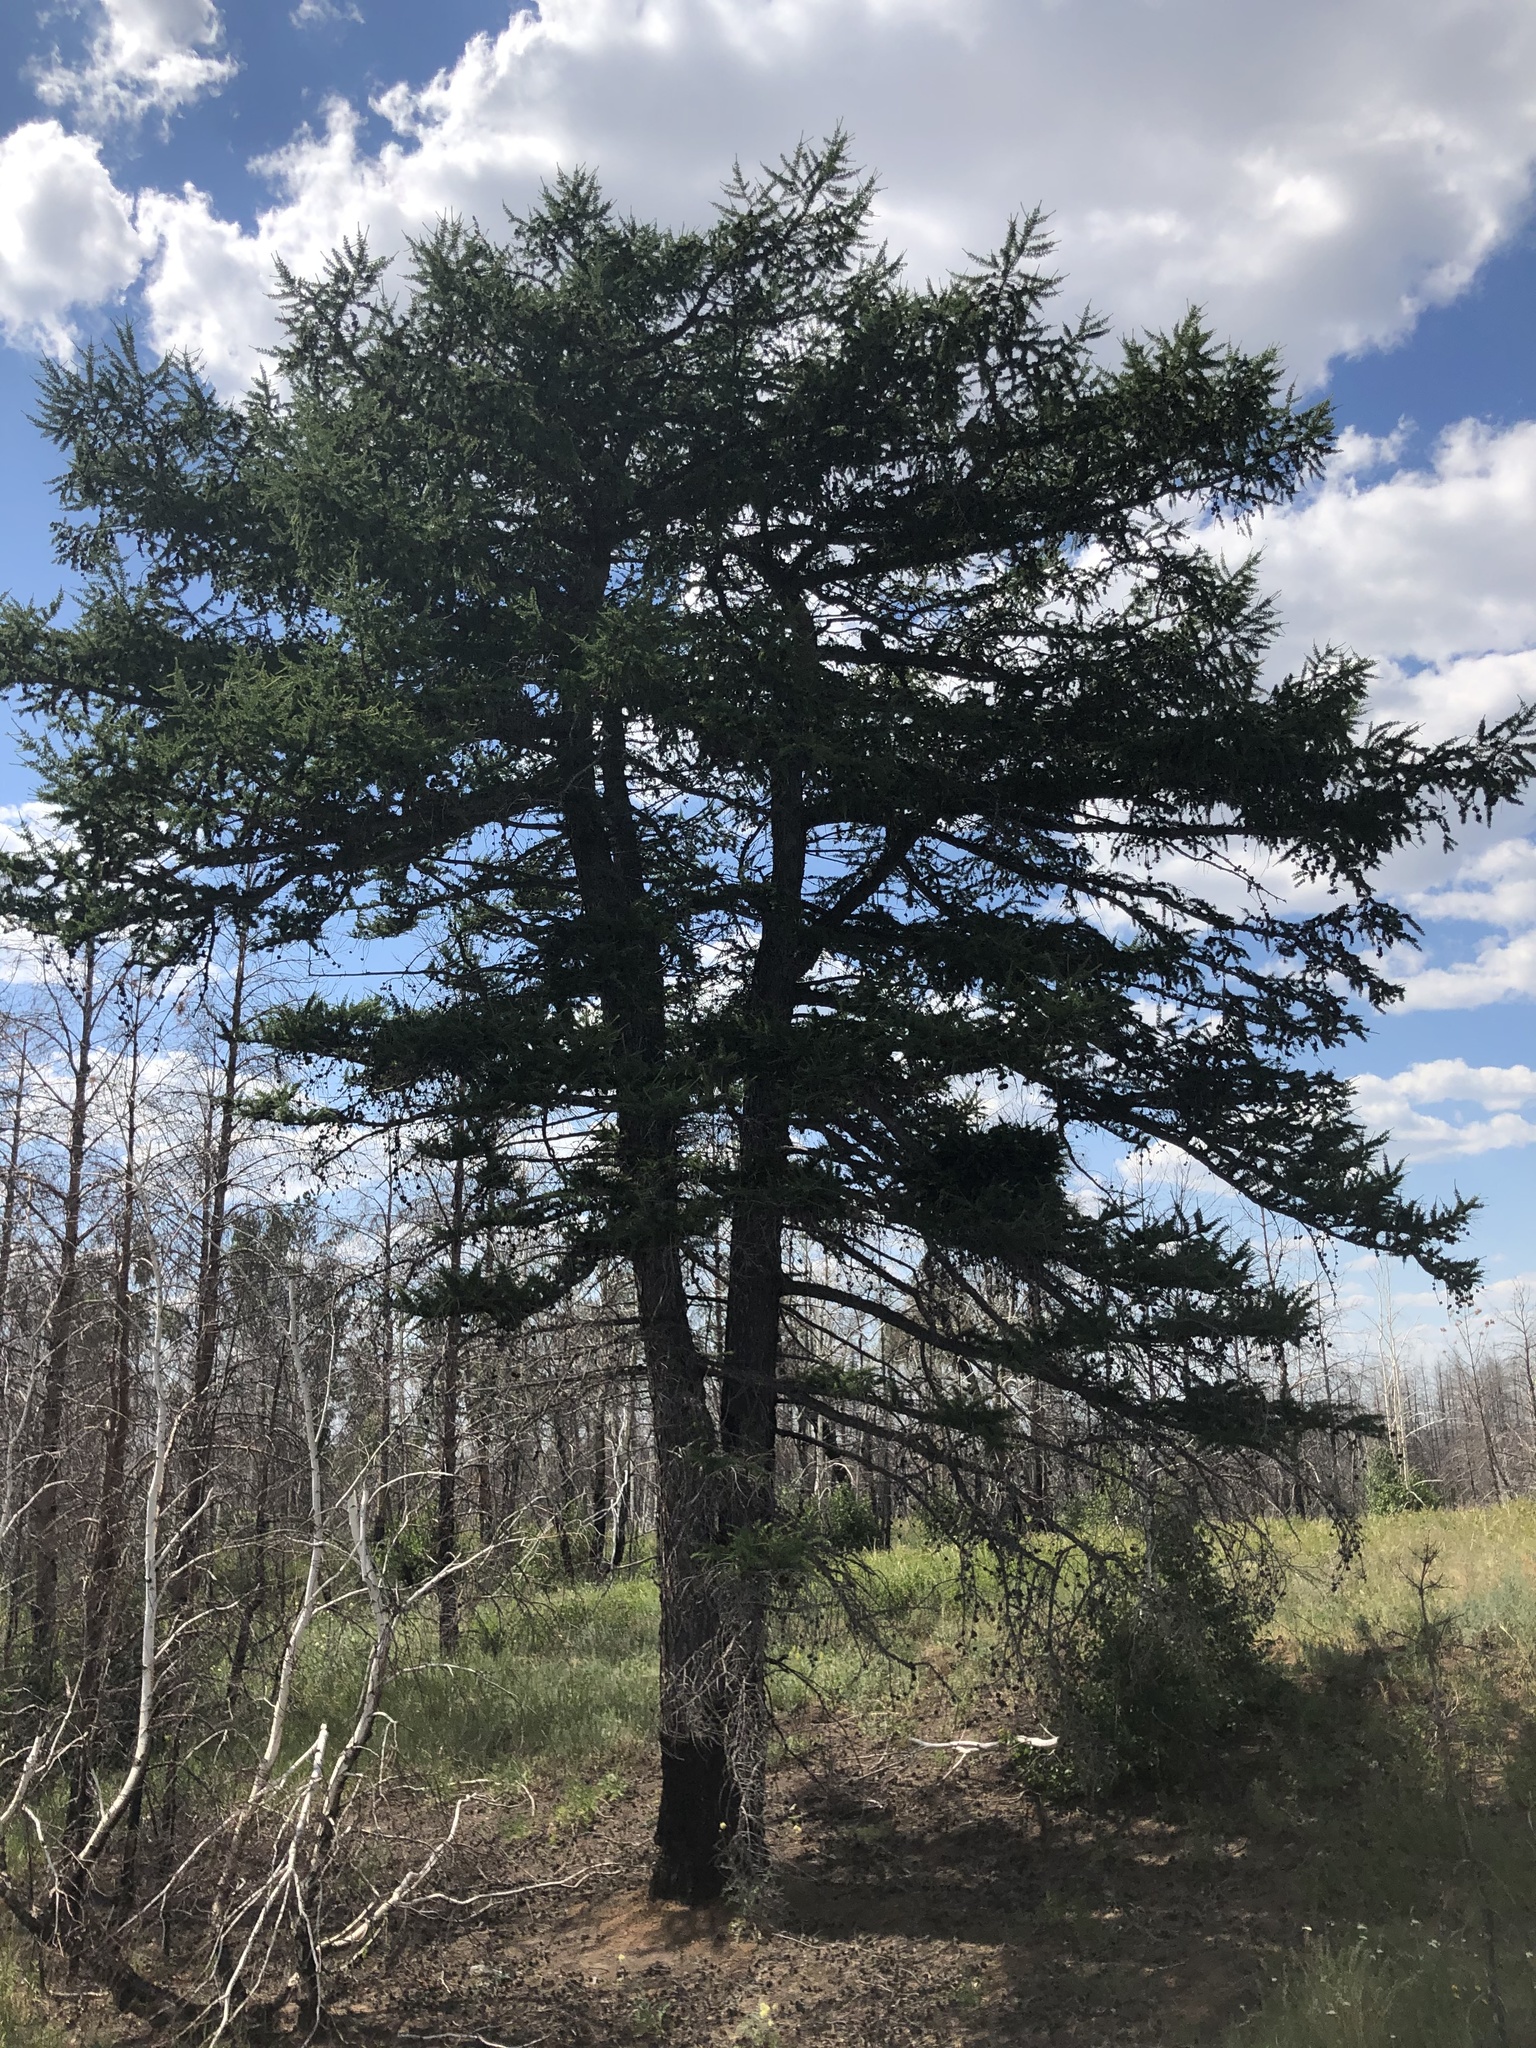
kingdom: Plantae
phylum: Tracheophyta
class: Pinopsida
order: Pinales
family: Pinaceae
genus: Larix
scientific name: Larix sibirica
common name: Siberian larch
